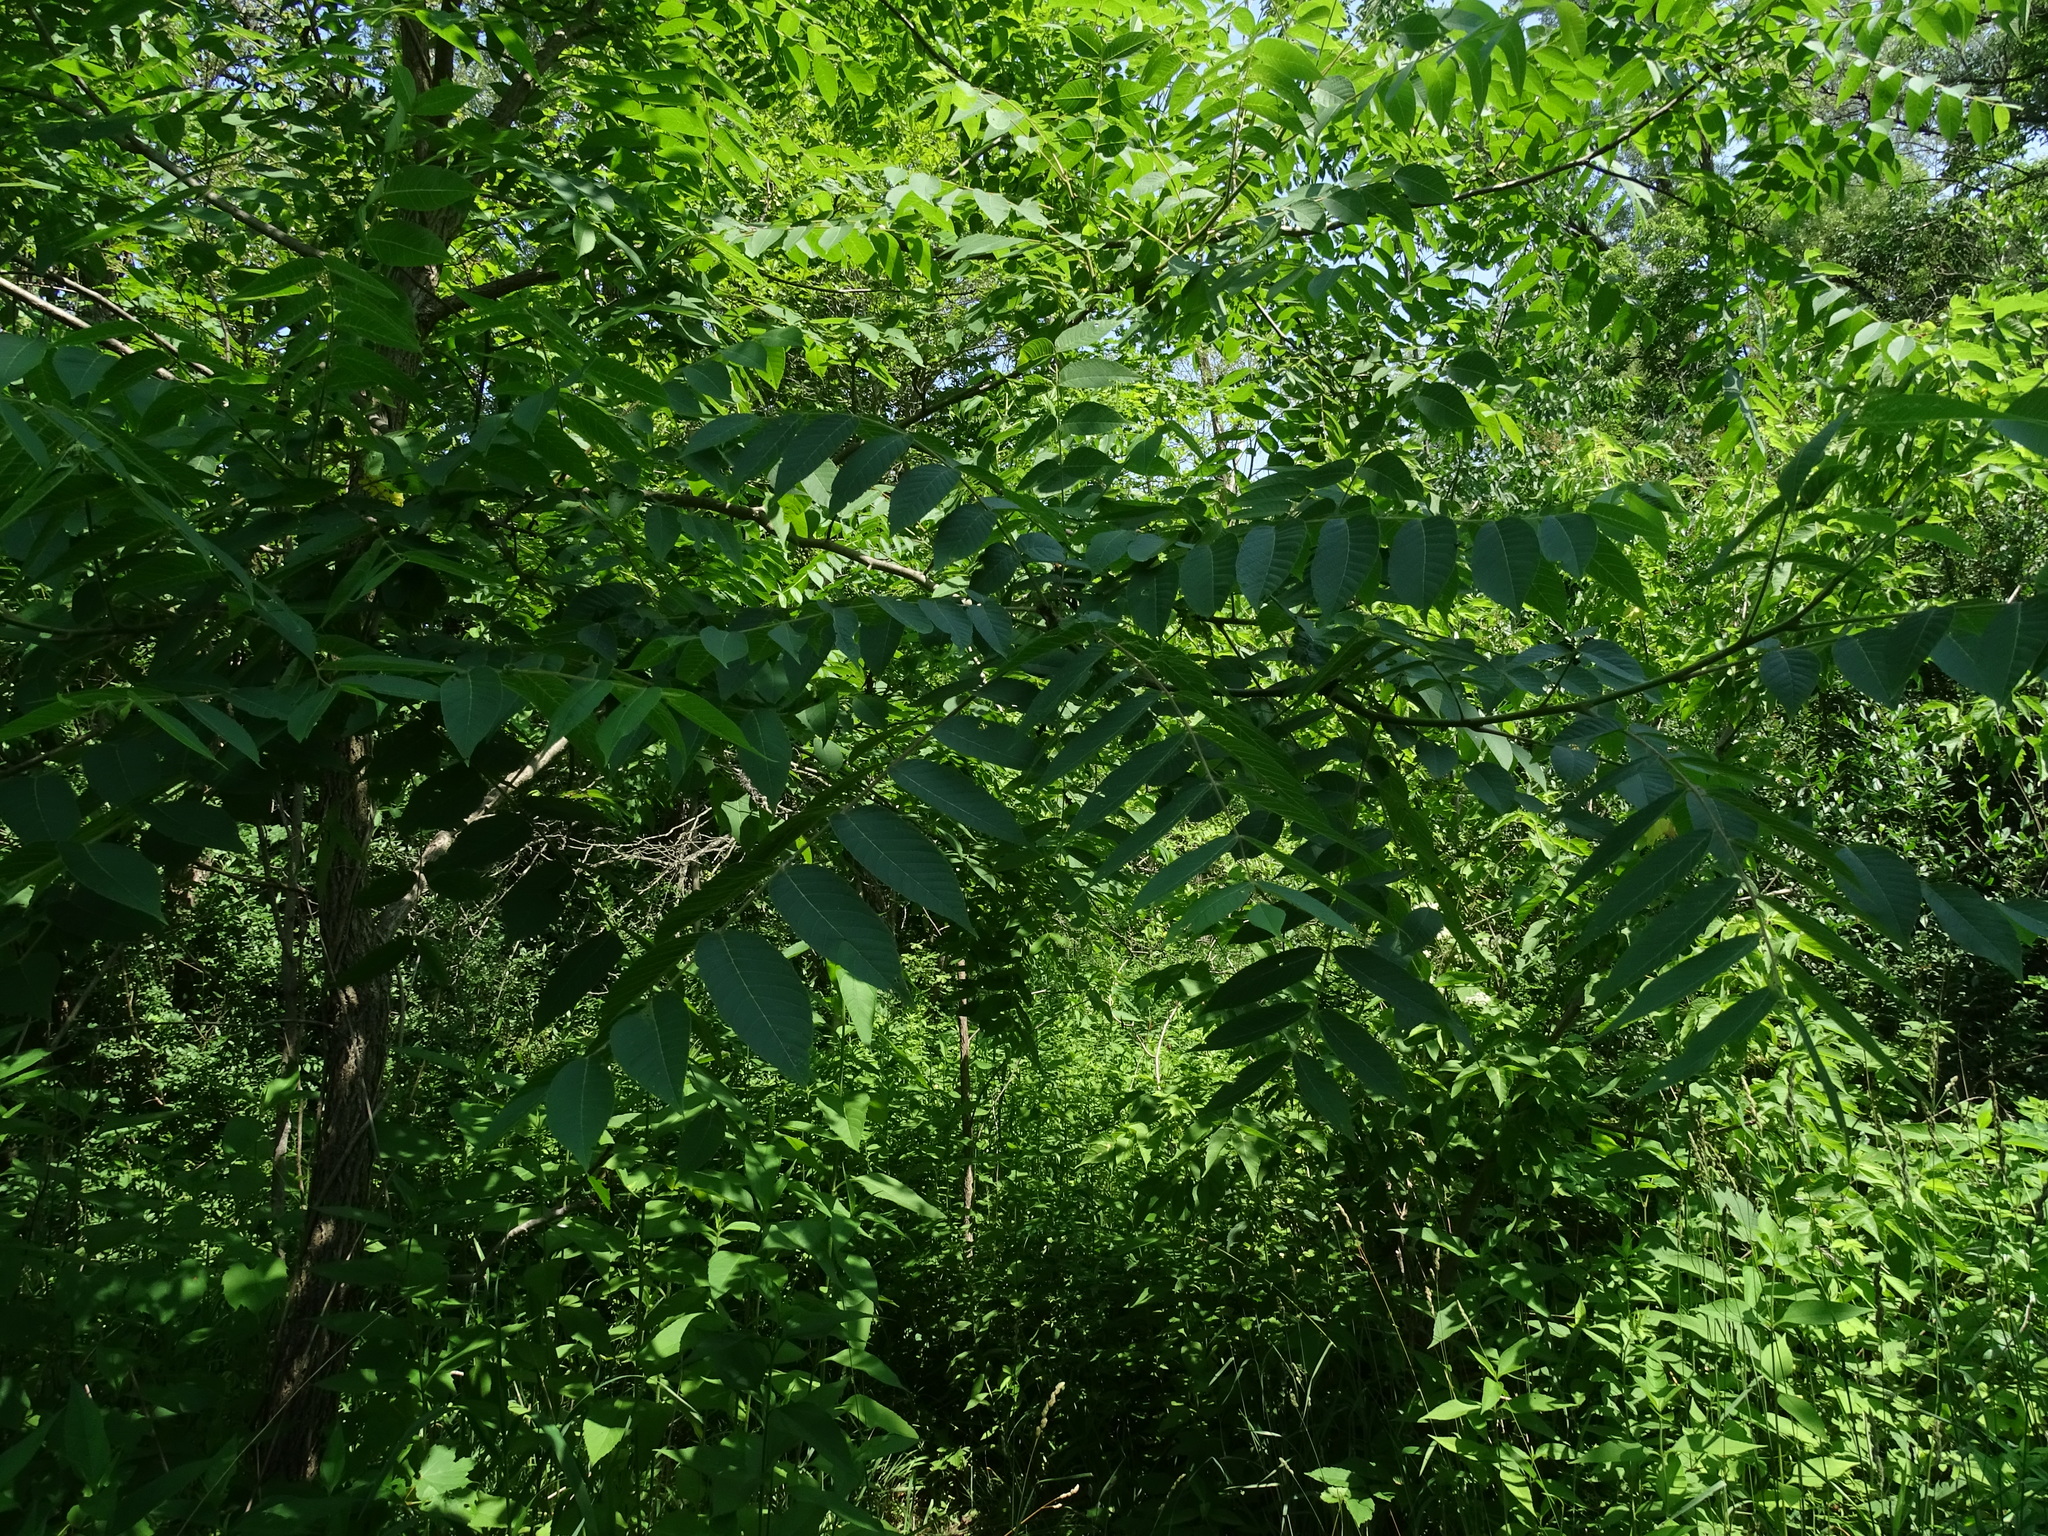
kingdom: Plantae
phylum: Tracheophyta
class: Magnoliopsida
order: Fagales
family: Juglandaceae
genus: Juglans
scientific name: Juglans nigra
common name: Black walnut
